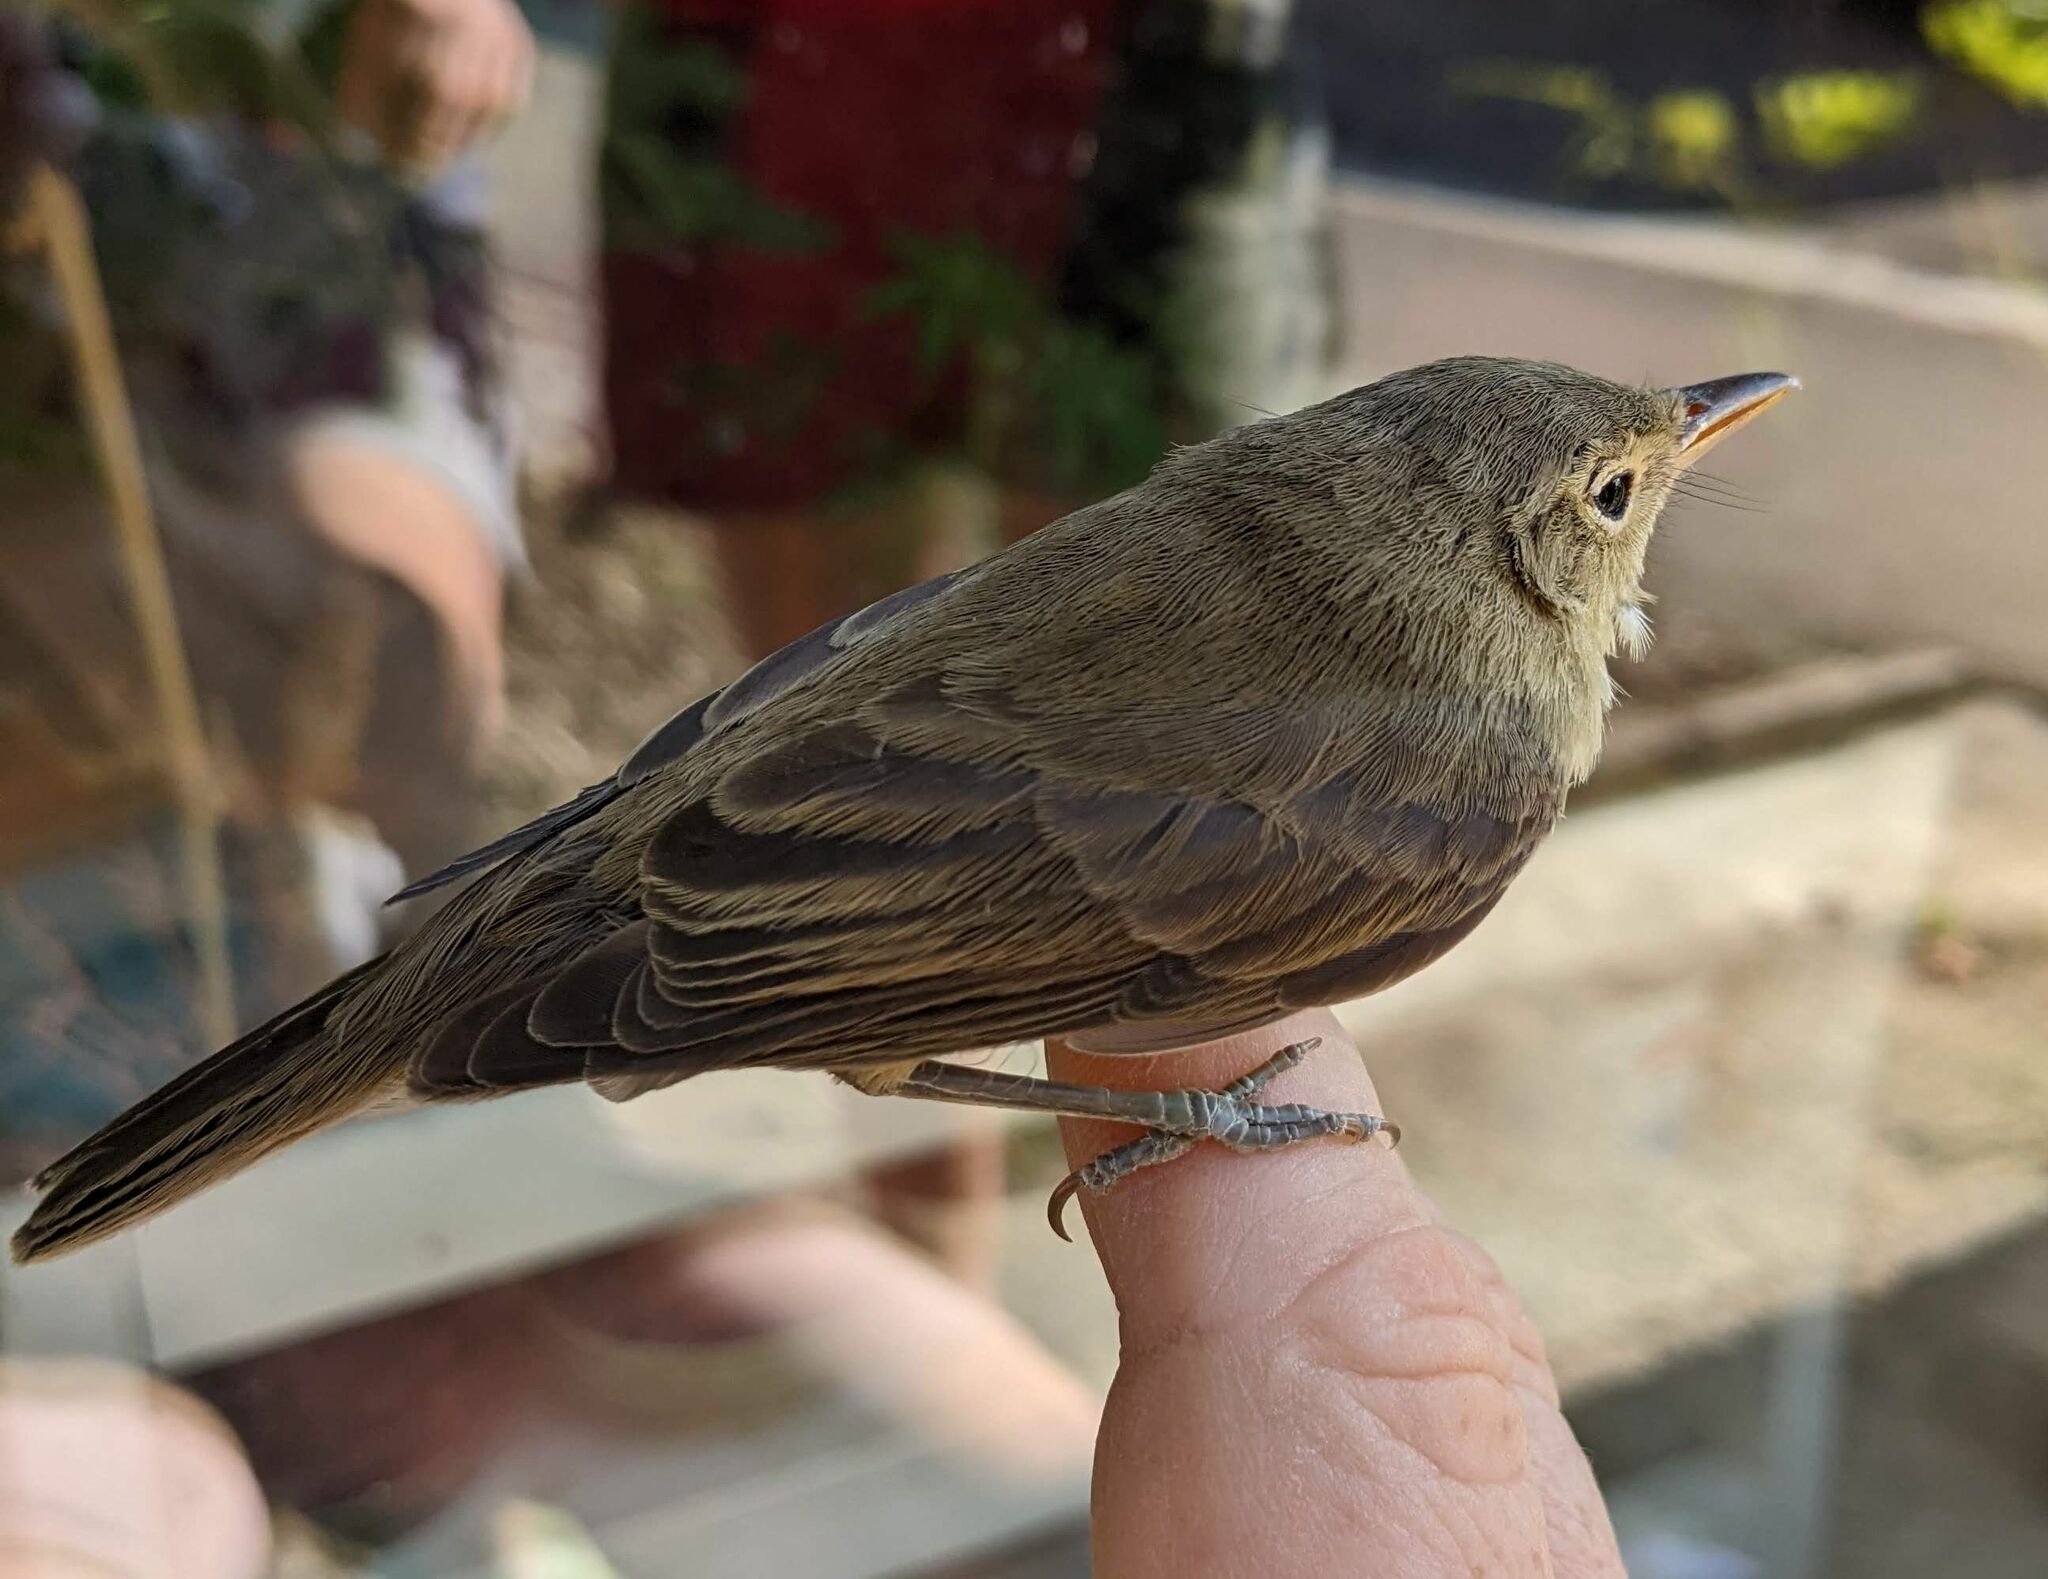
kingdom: Animalia
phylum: Chordata
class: Aves
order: Passeriformes
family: Acrocephalidae
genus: Hippolais
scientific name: Hippolais polyglotta
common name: Melodious warbler
